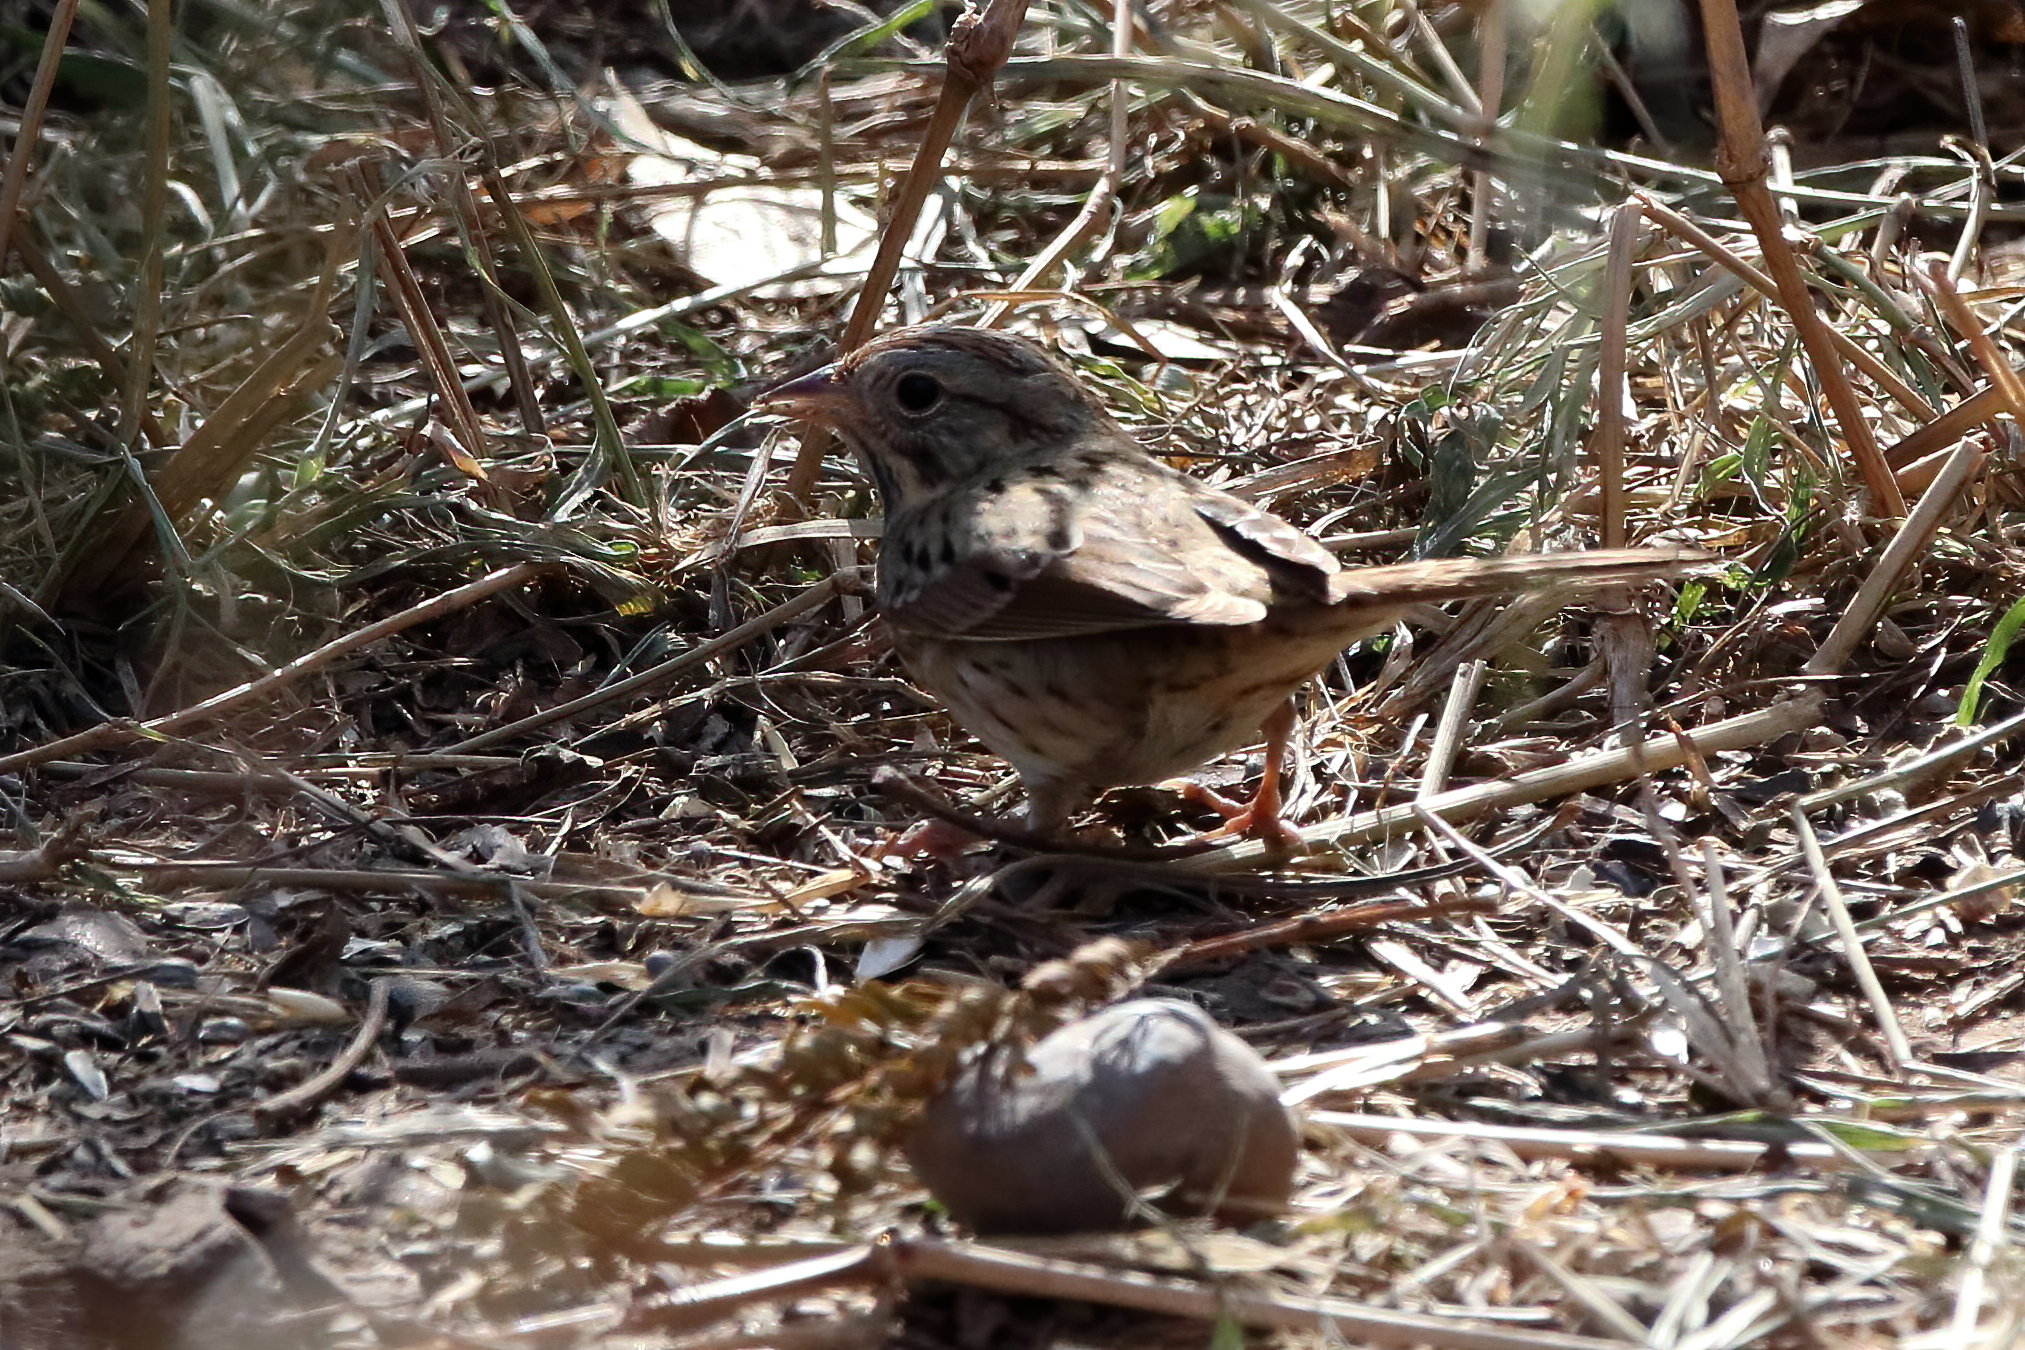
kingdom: Animalia
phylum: Chordata
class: Aves
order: Passeriformes
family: Passerellidae
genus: Melospiza
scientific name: Melospiza lincolnii
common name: Lincoln's sparrow
